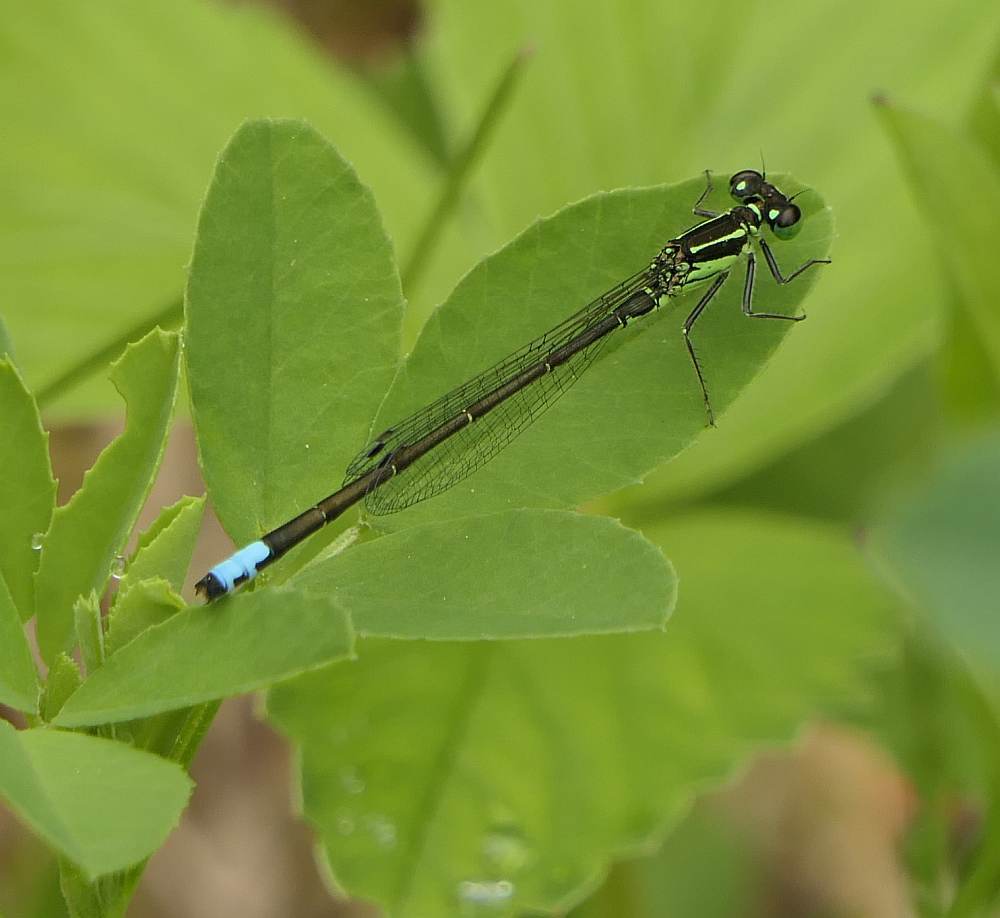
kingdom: Animalia
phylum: Arthropoda
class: Insecta
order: Odonata
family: Coenagrionidae
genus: Ischnura
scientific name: Ischnura verticalis
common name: Eastern forktail
